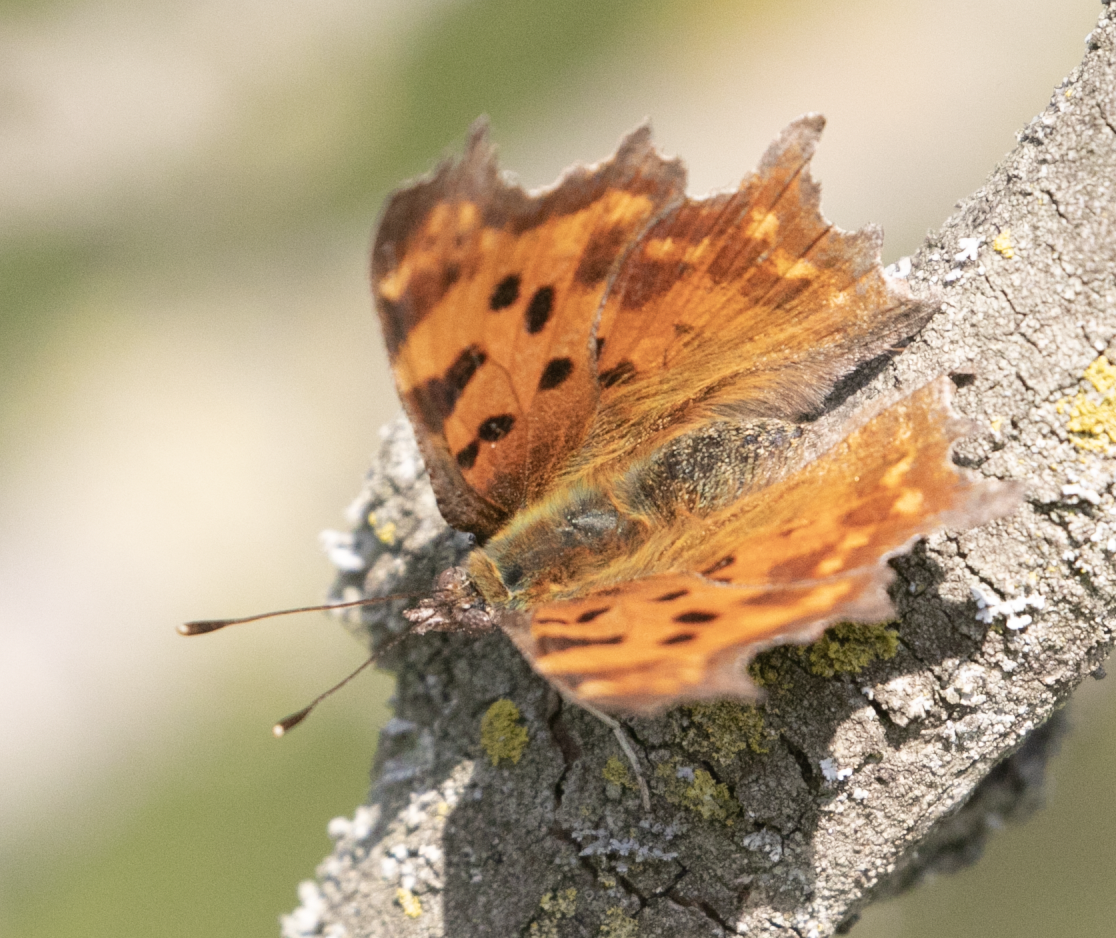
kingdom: Animalia
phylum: Arthropoda
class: Insecta
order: Lepidoptera
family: Nymphalidae
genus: Polygonia
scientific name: Polygonia c-album
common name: Comma
